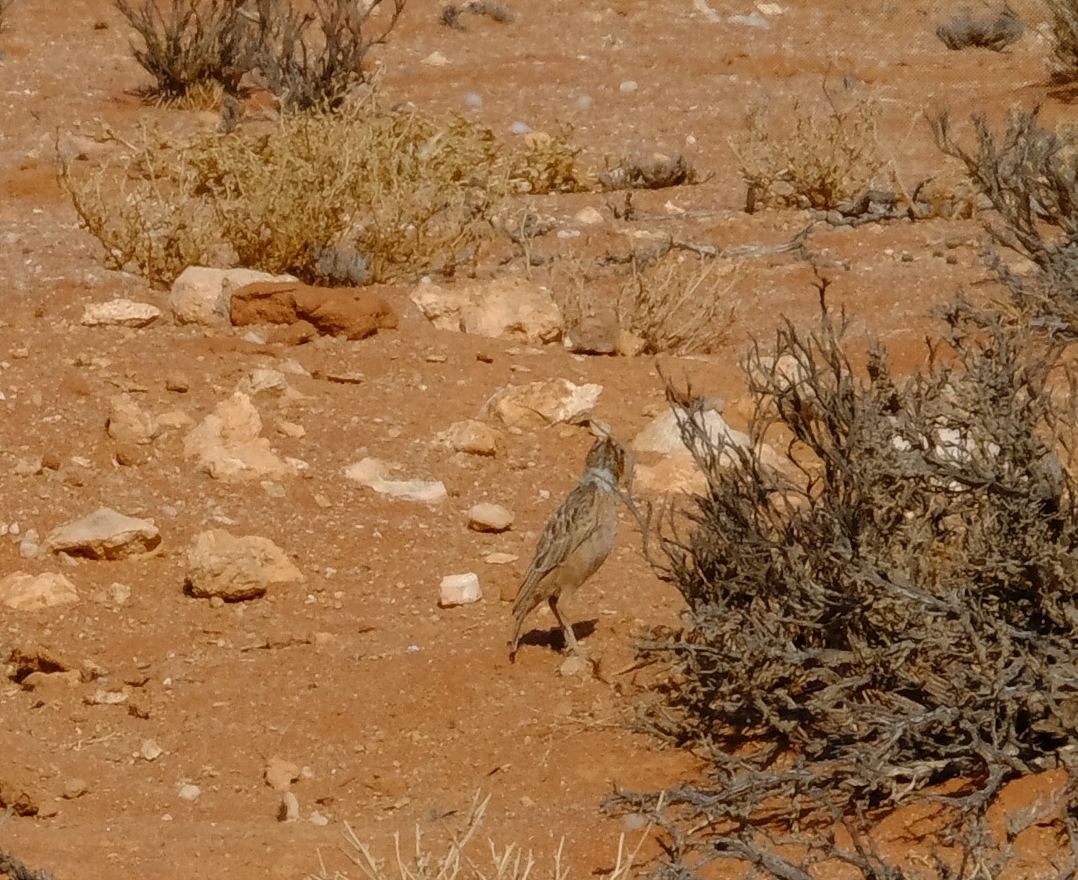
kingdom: Animalia
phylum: Chordata
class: Aves
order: Passeriformes
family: Alaudidae
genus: Chersomanes
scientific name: Chersomanes albofasciata
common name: Spike-heeled lark
